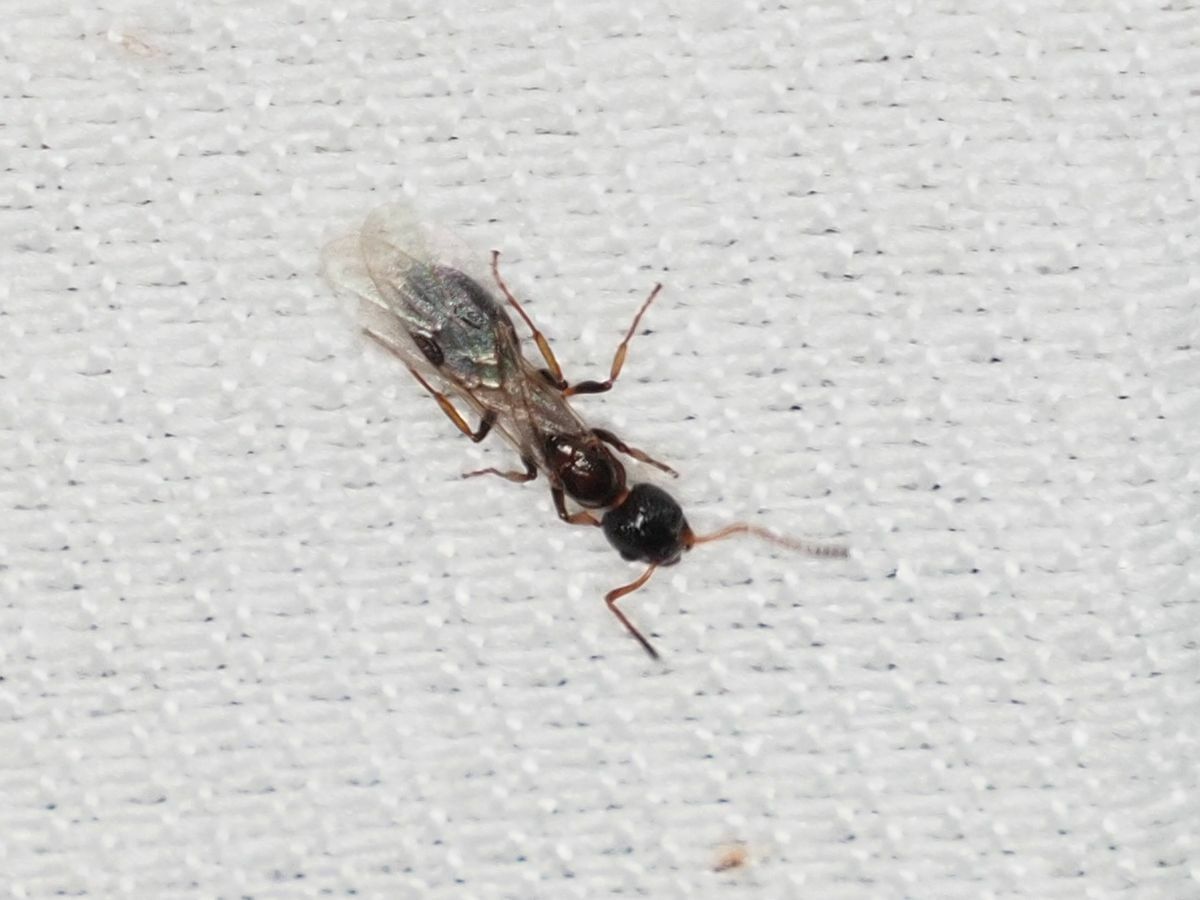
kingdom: Animalia
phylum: Arthropoda
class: Insecta
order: Hymenoptera
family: Formicidae
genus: Dolichoderus
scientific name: Dolichoderus quadripunctatus
